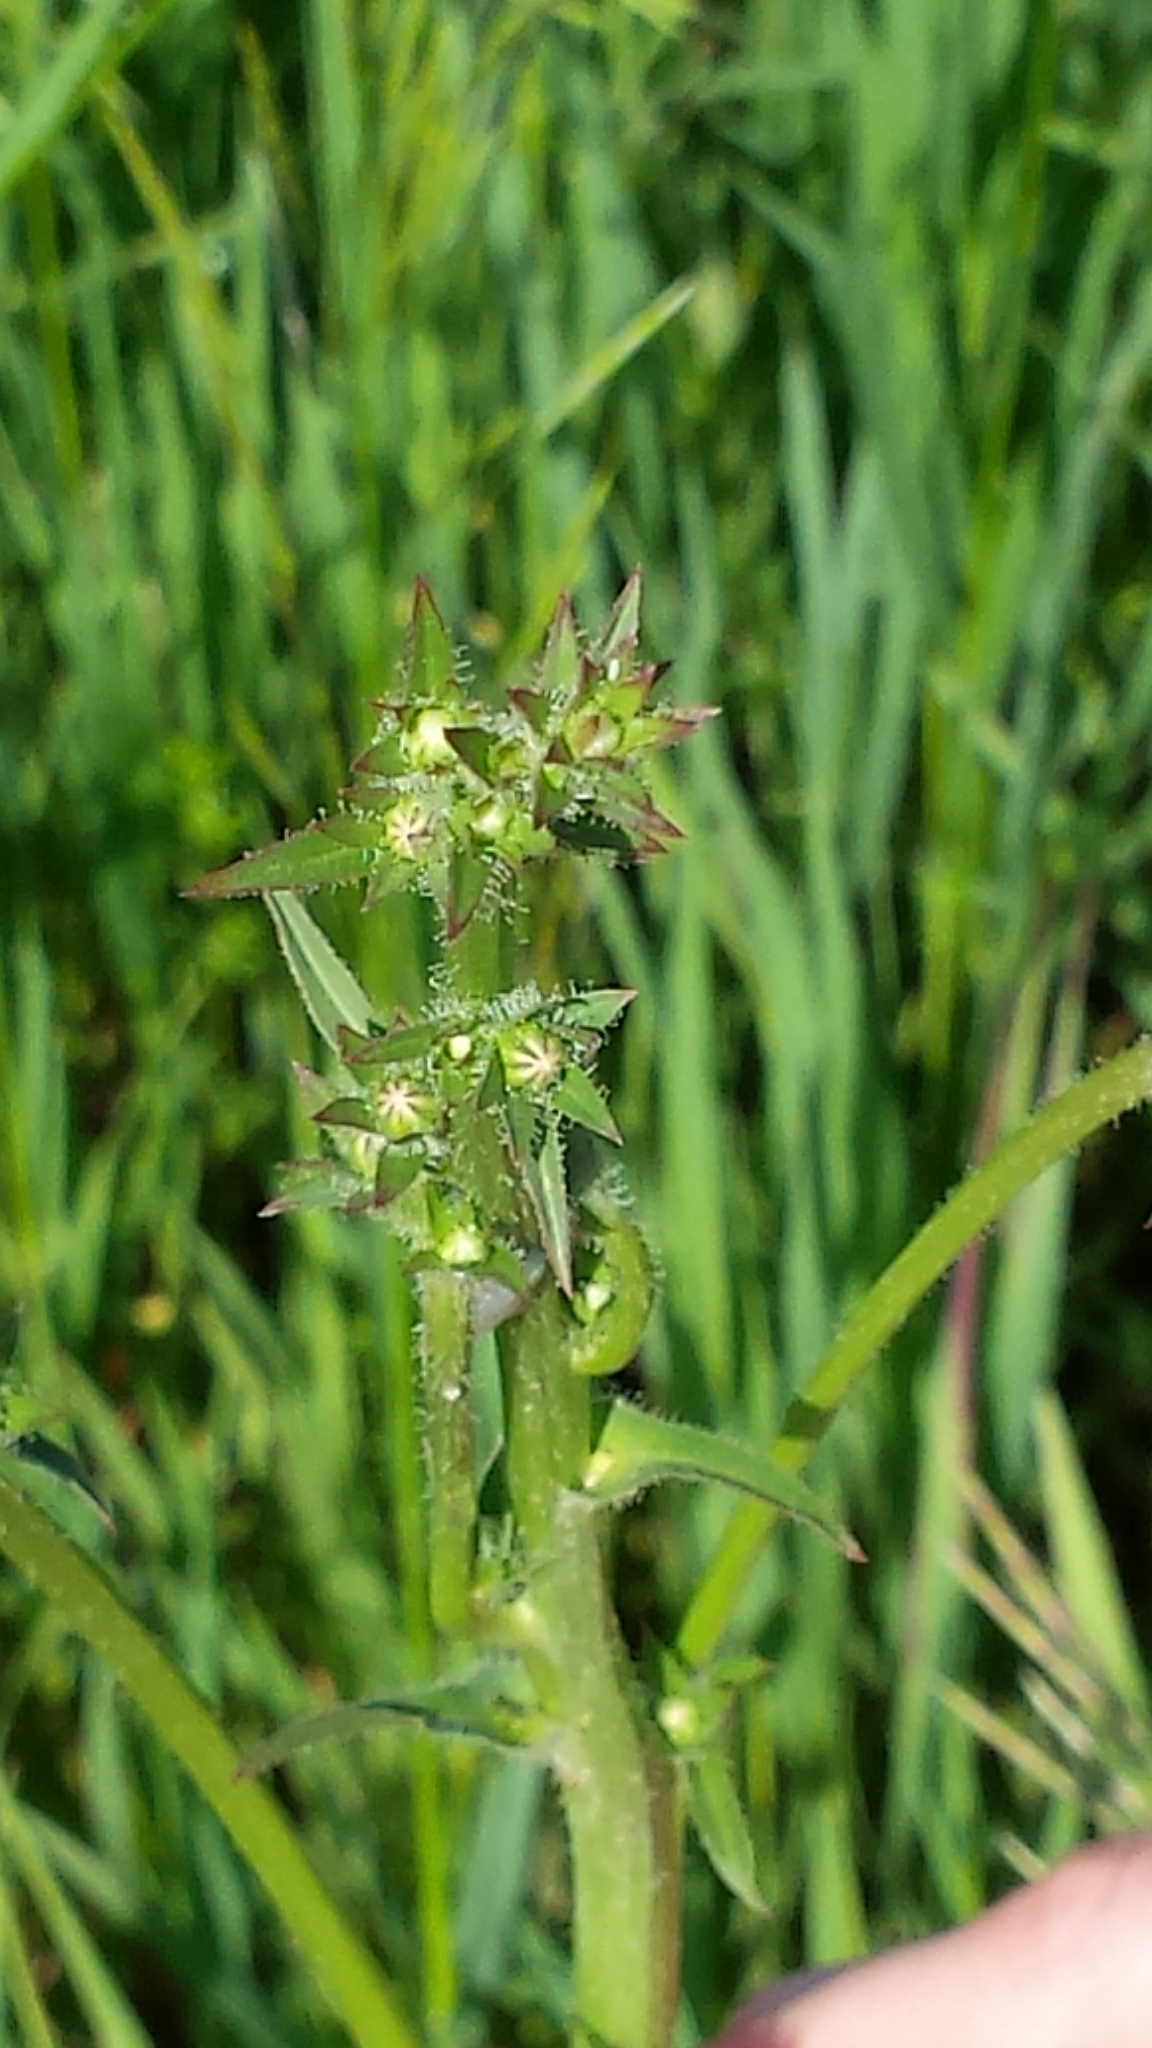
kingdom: Plantae
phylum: Tracheophyta
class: Magnoliopsida
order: Asterales
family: Asteraceae
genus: Cichorium
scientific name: Cichorium intybus
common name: Chicory
